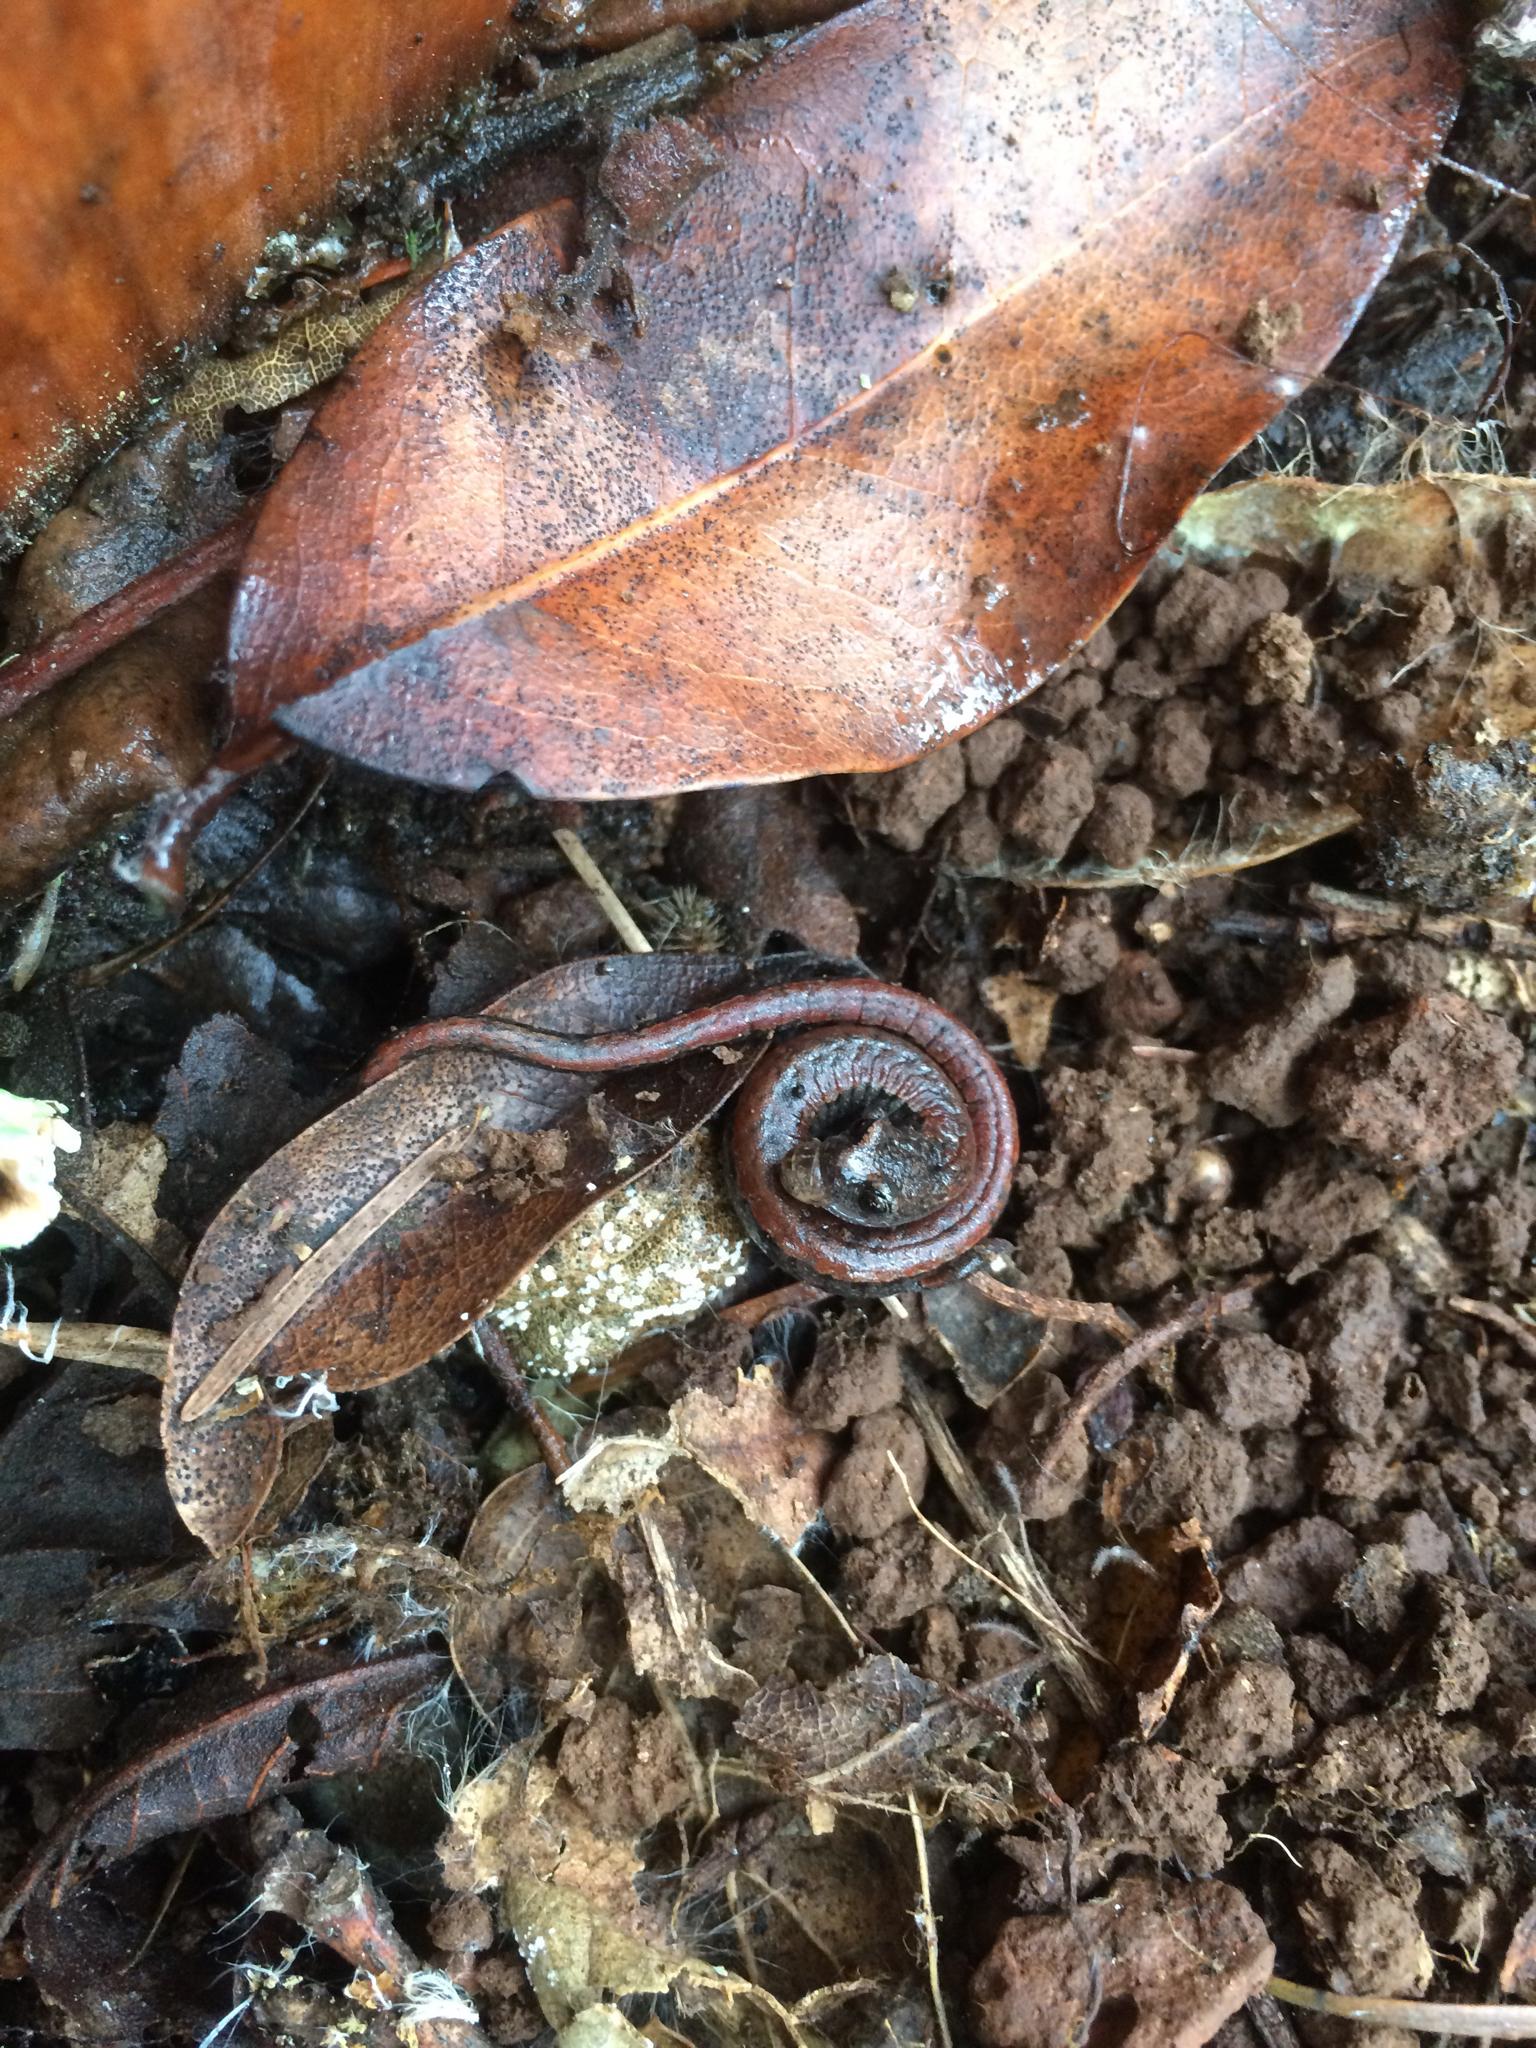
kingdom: Animalia
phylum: Chordata
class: Amphibia
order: Caudata
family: Plethodontidae
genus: Batrachoseps
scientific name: Batrachoseps attenuatus
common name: California slender salamander
